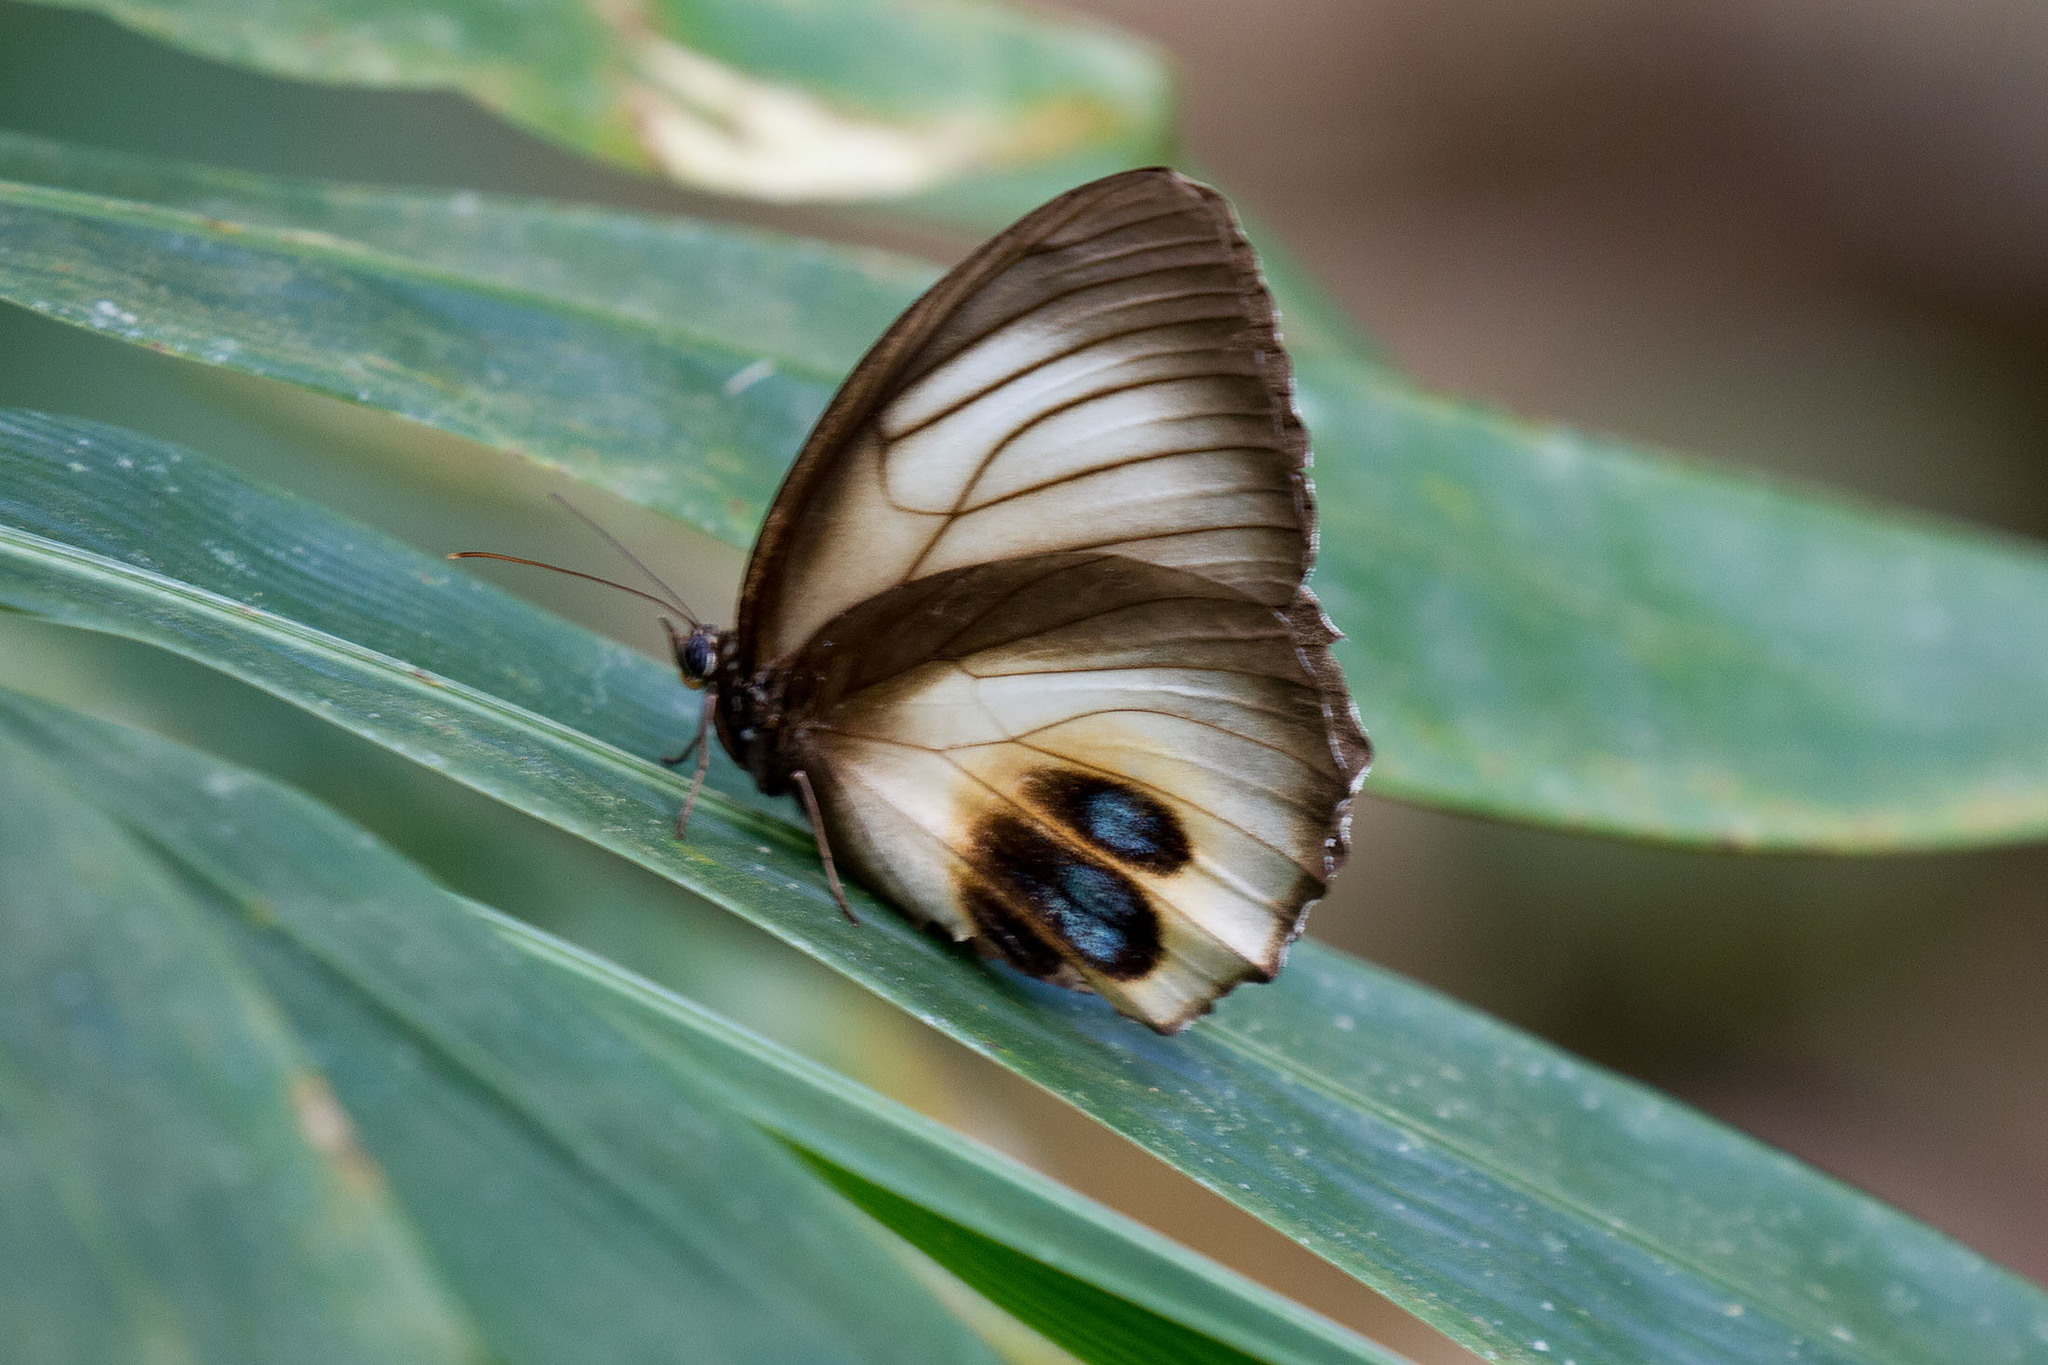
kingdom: Animalia
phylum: Arthropoda
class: Insecta
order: Lepidoptera
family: Nymphalidae
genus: Elymnias
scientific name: Elymnias agondas
